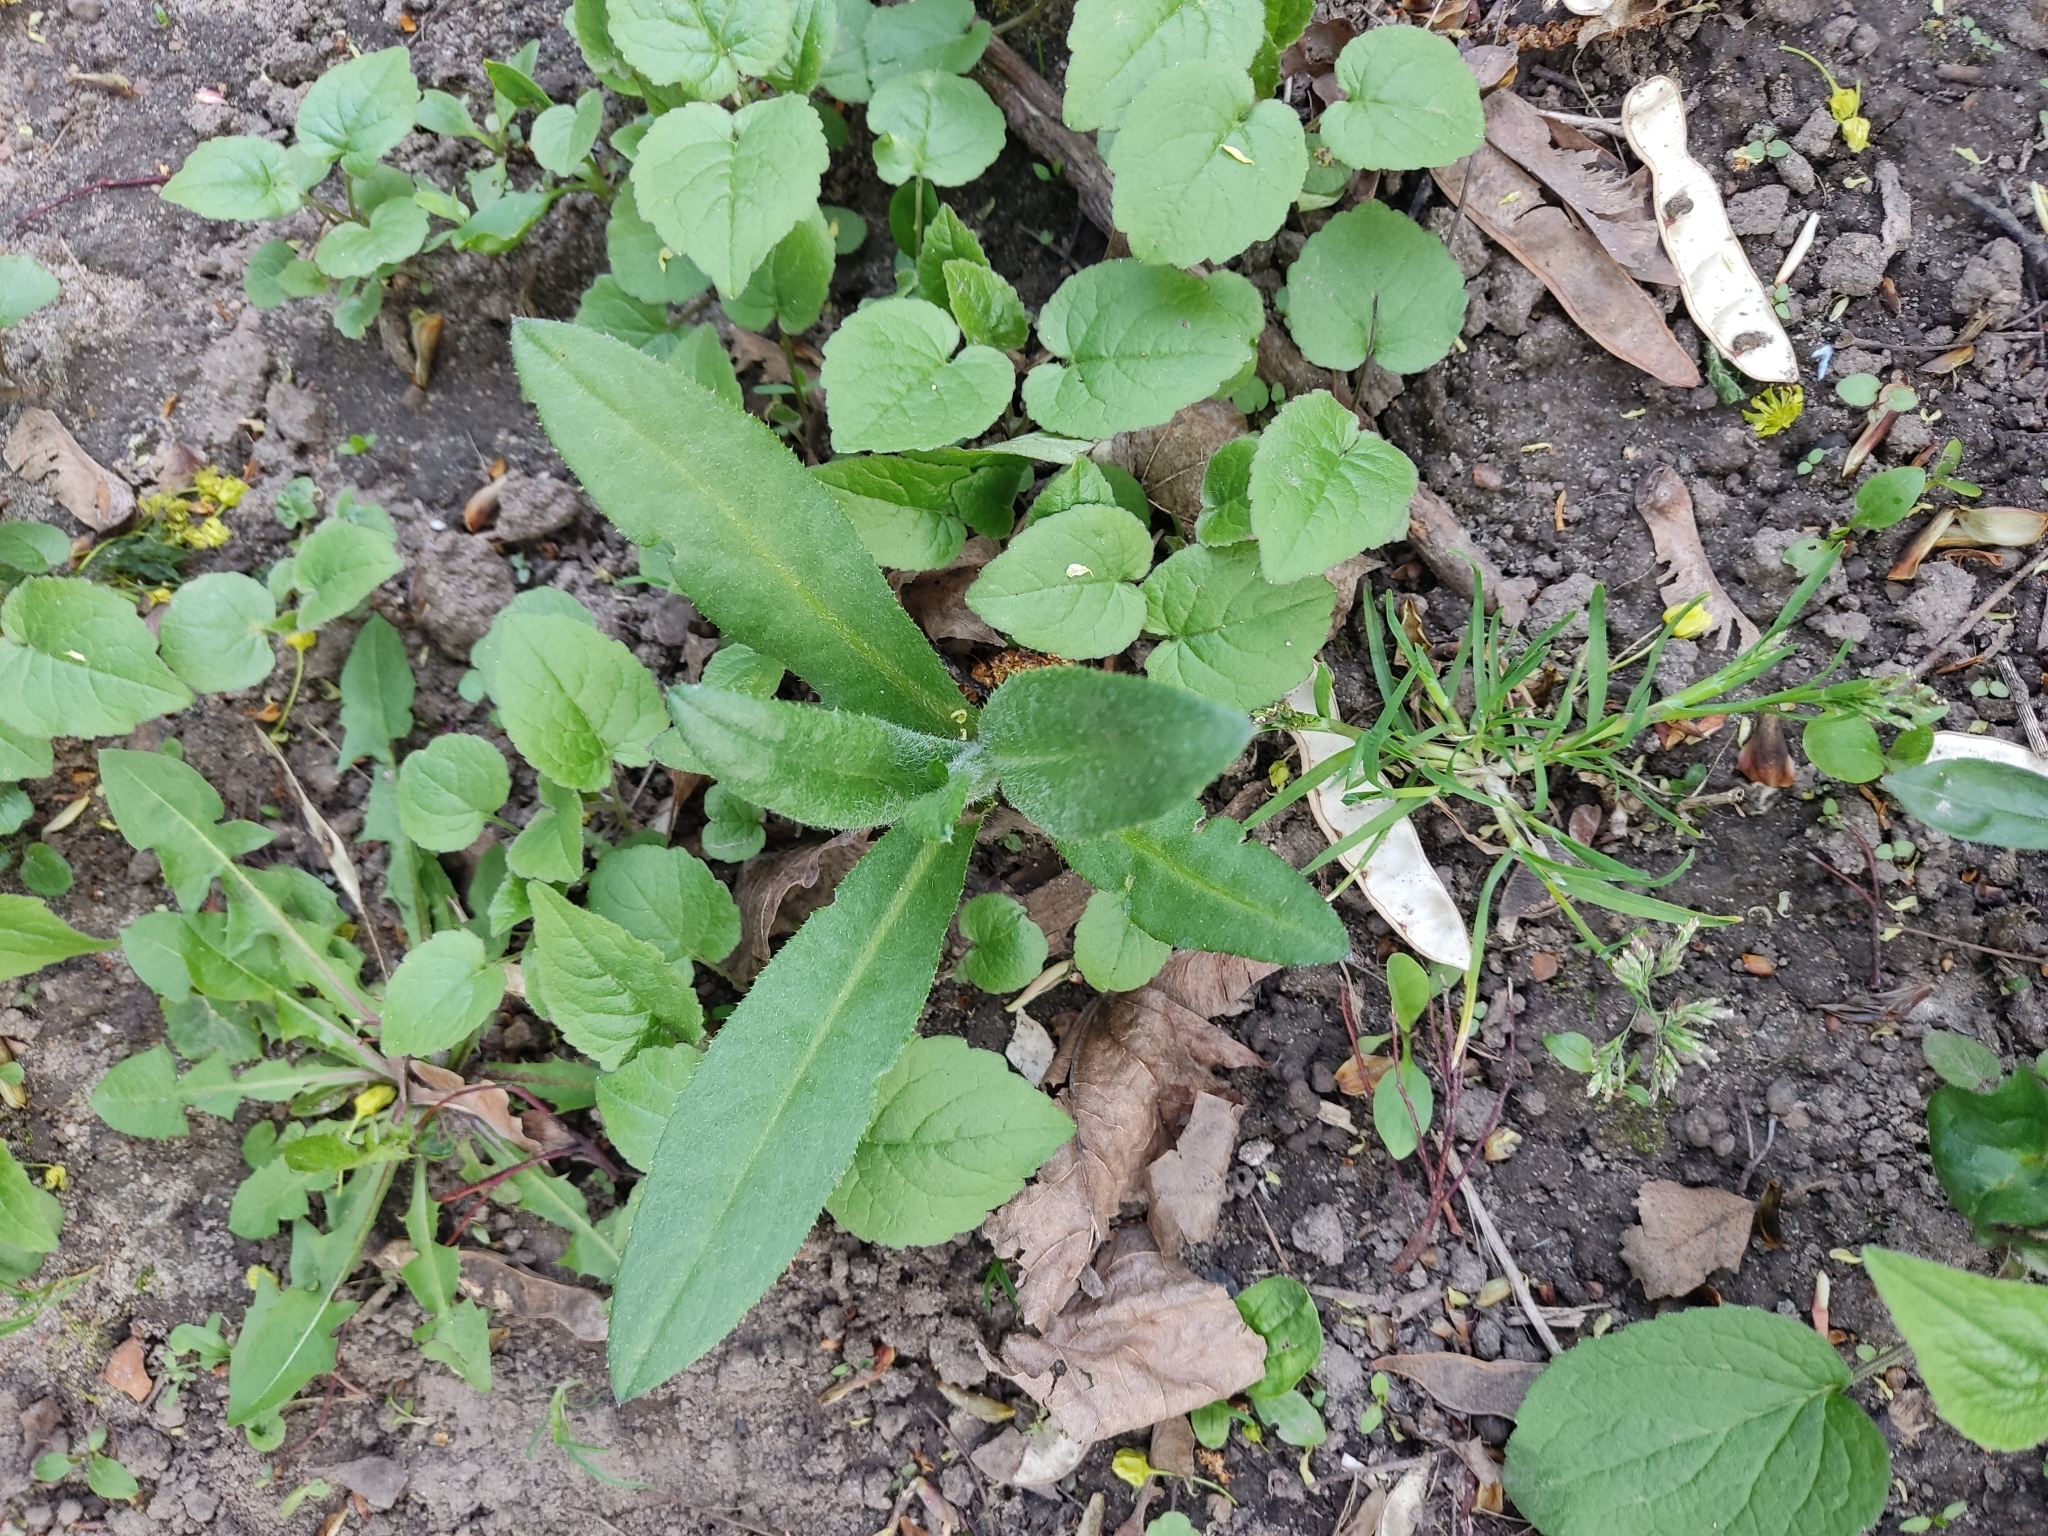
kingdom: Plantae
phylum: Tracheophyta
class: Magnoliopsida
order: Asterales
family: Asteraceae
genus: Cirsium
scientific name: Cirsium arvense
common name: Creeping thistle
